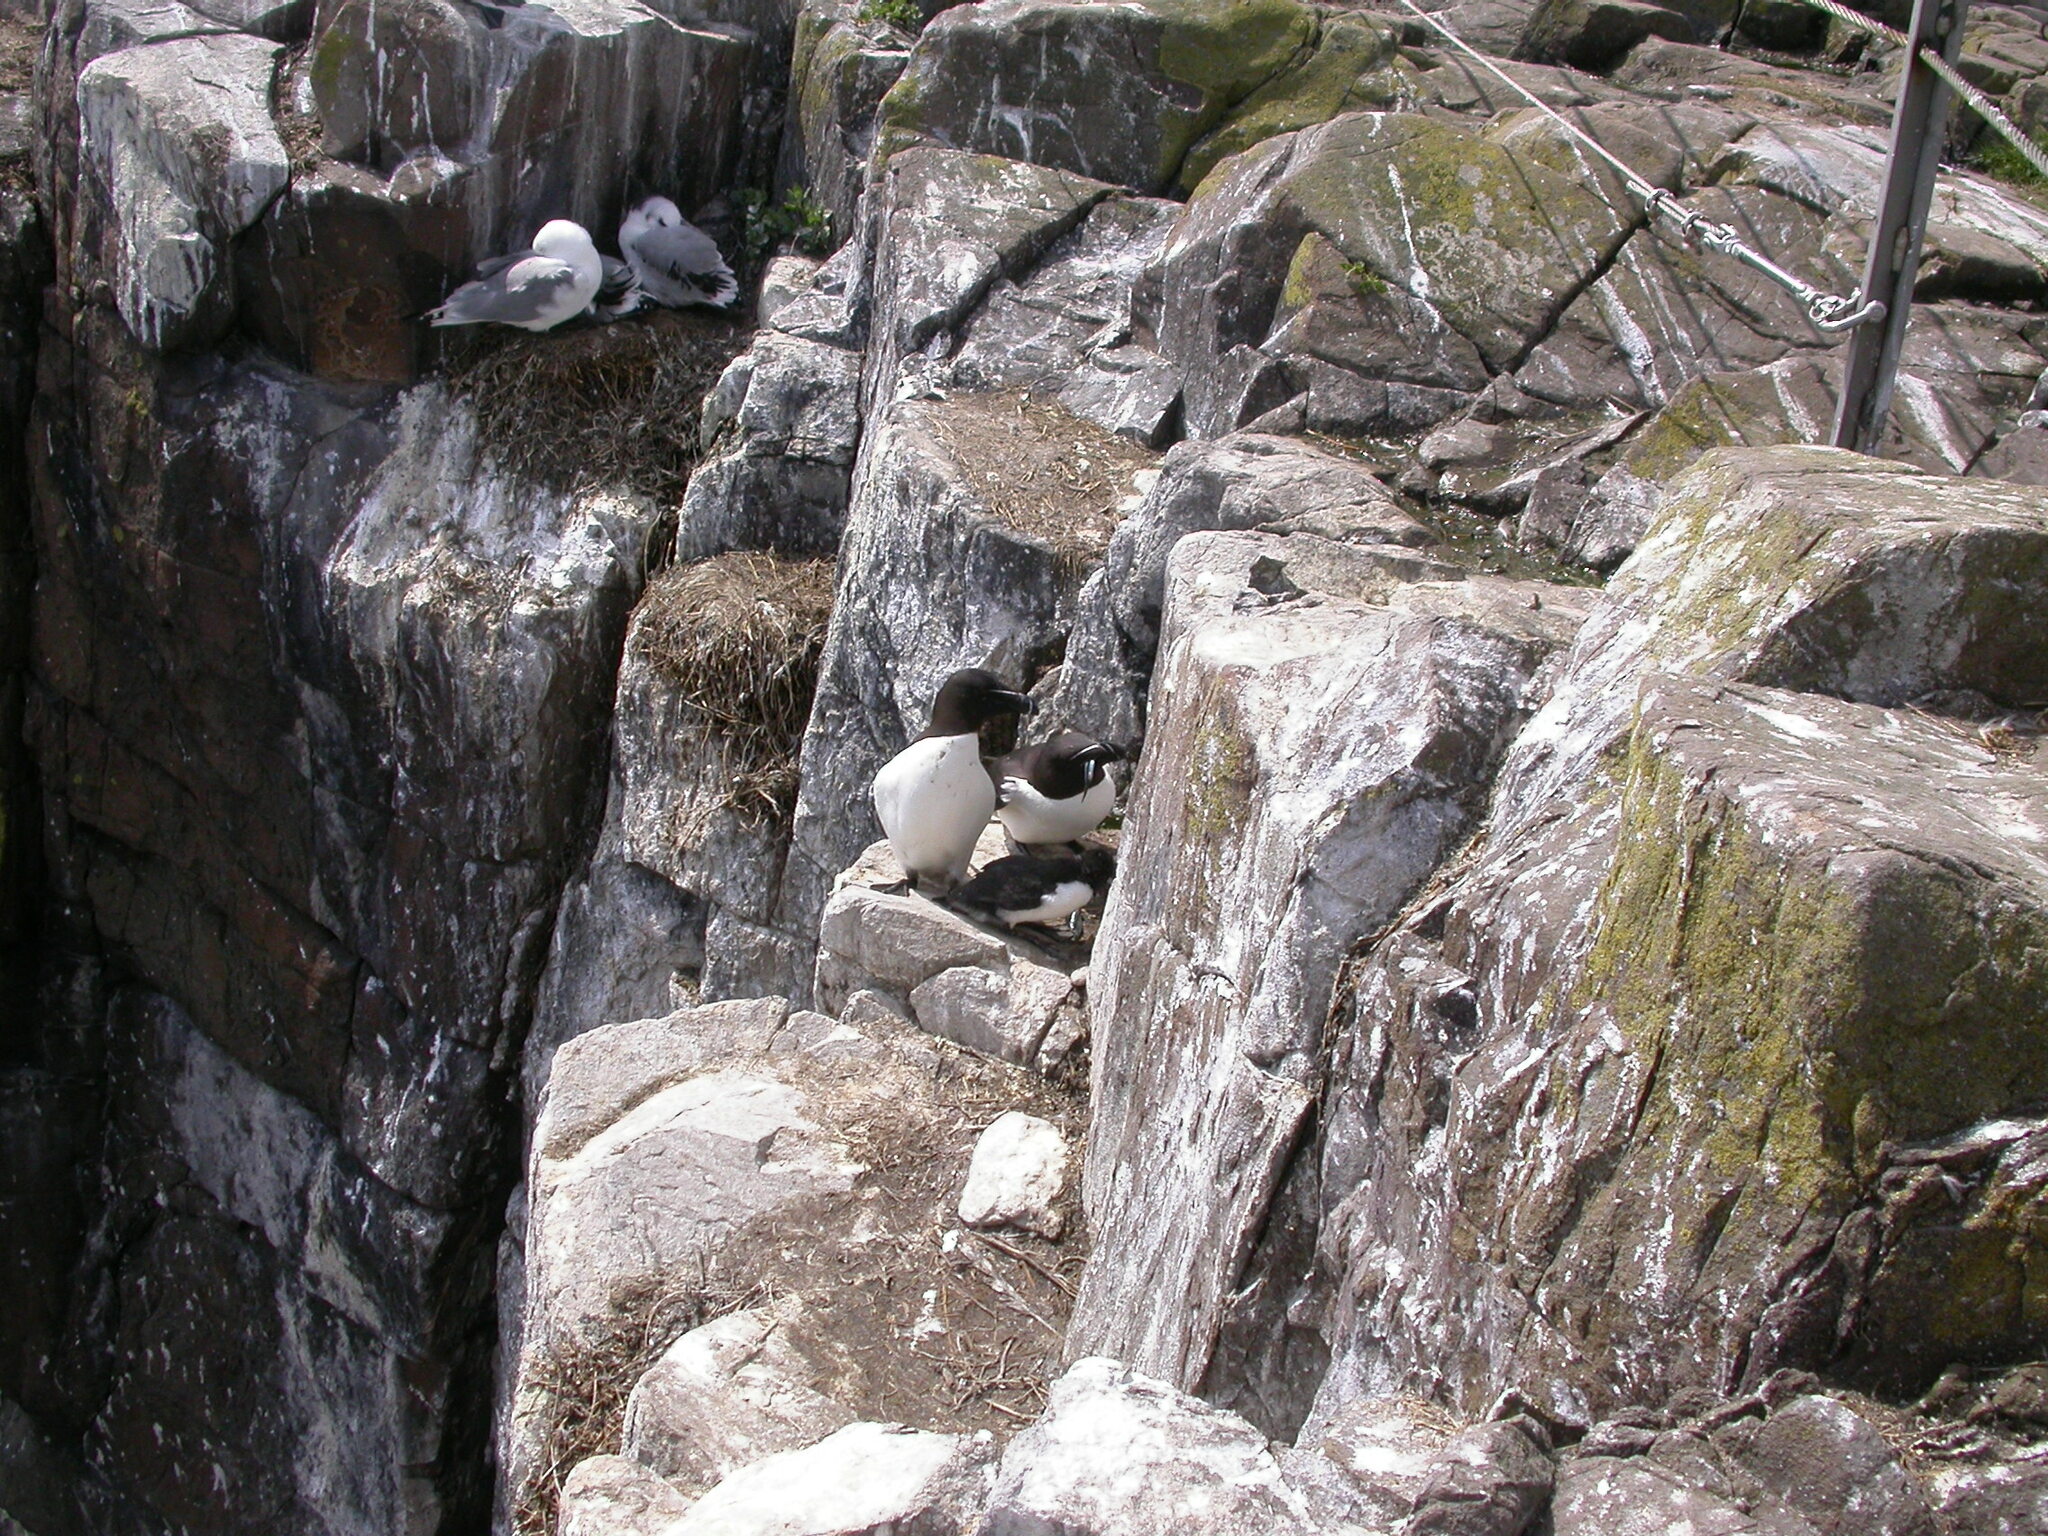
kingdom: Animalia
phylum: Chordata
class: Aves
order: Charadriiformes
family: Laridae
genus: Rissa
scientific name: Rissa tridactyla
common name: Black-legged kittiwake
